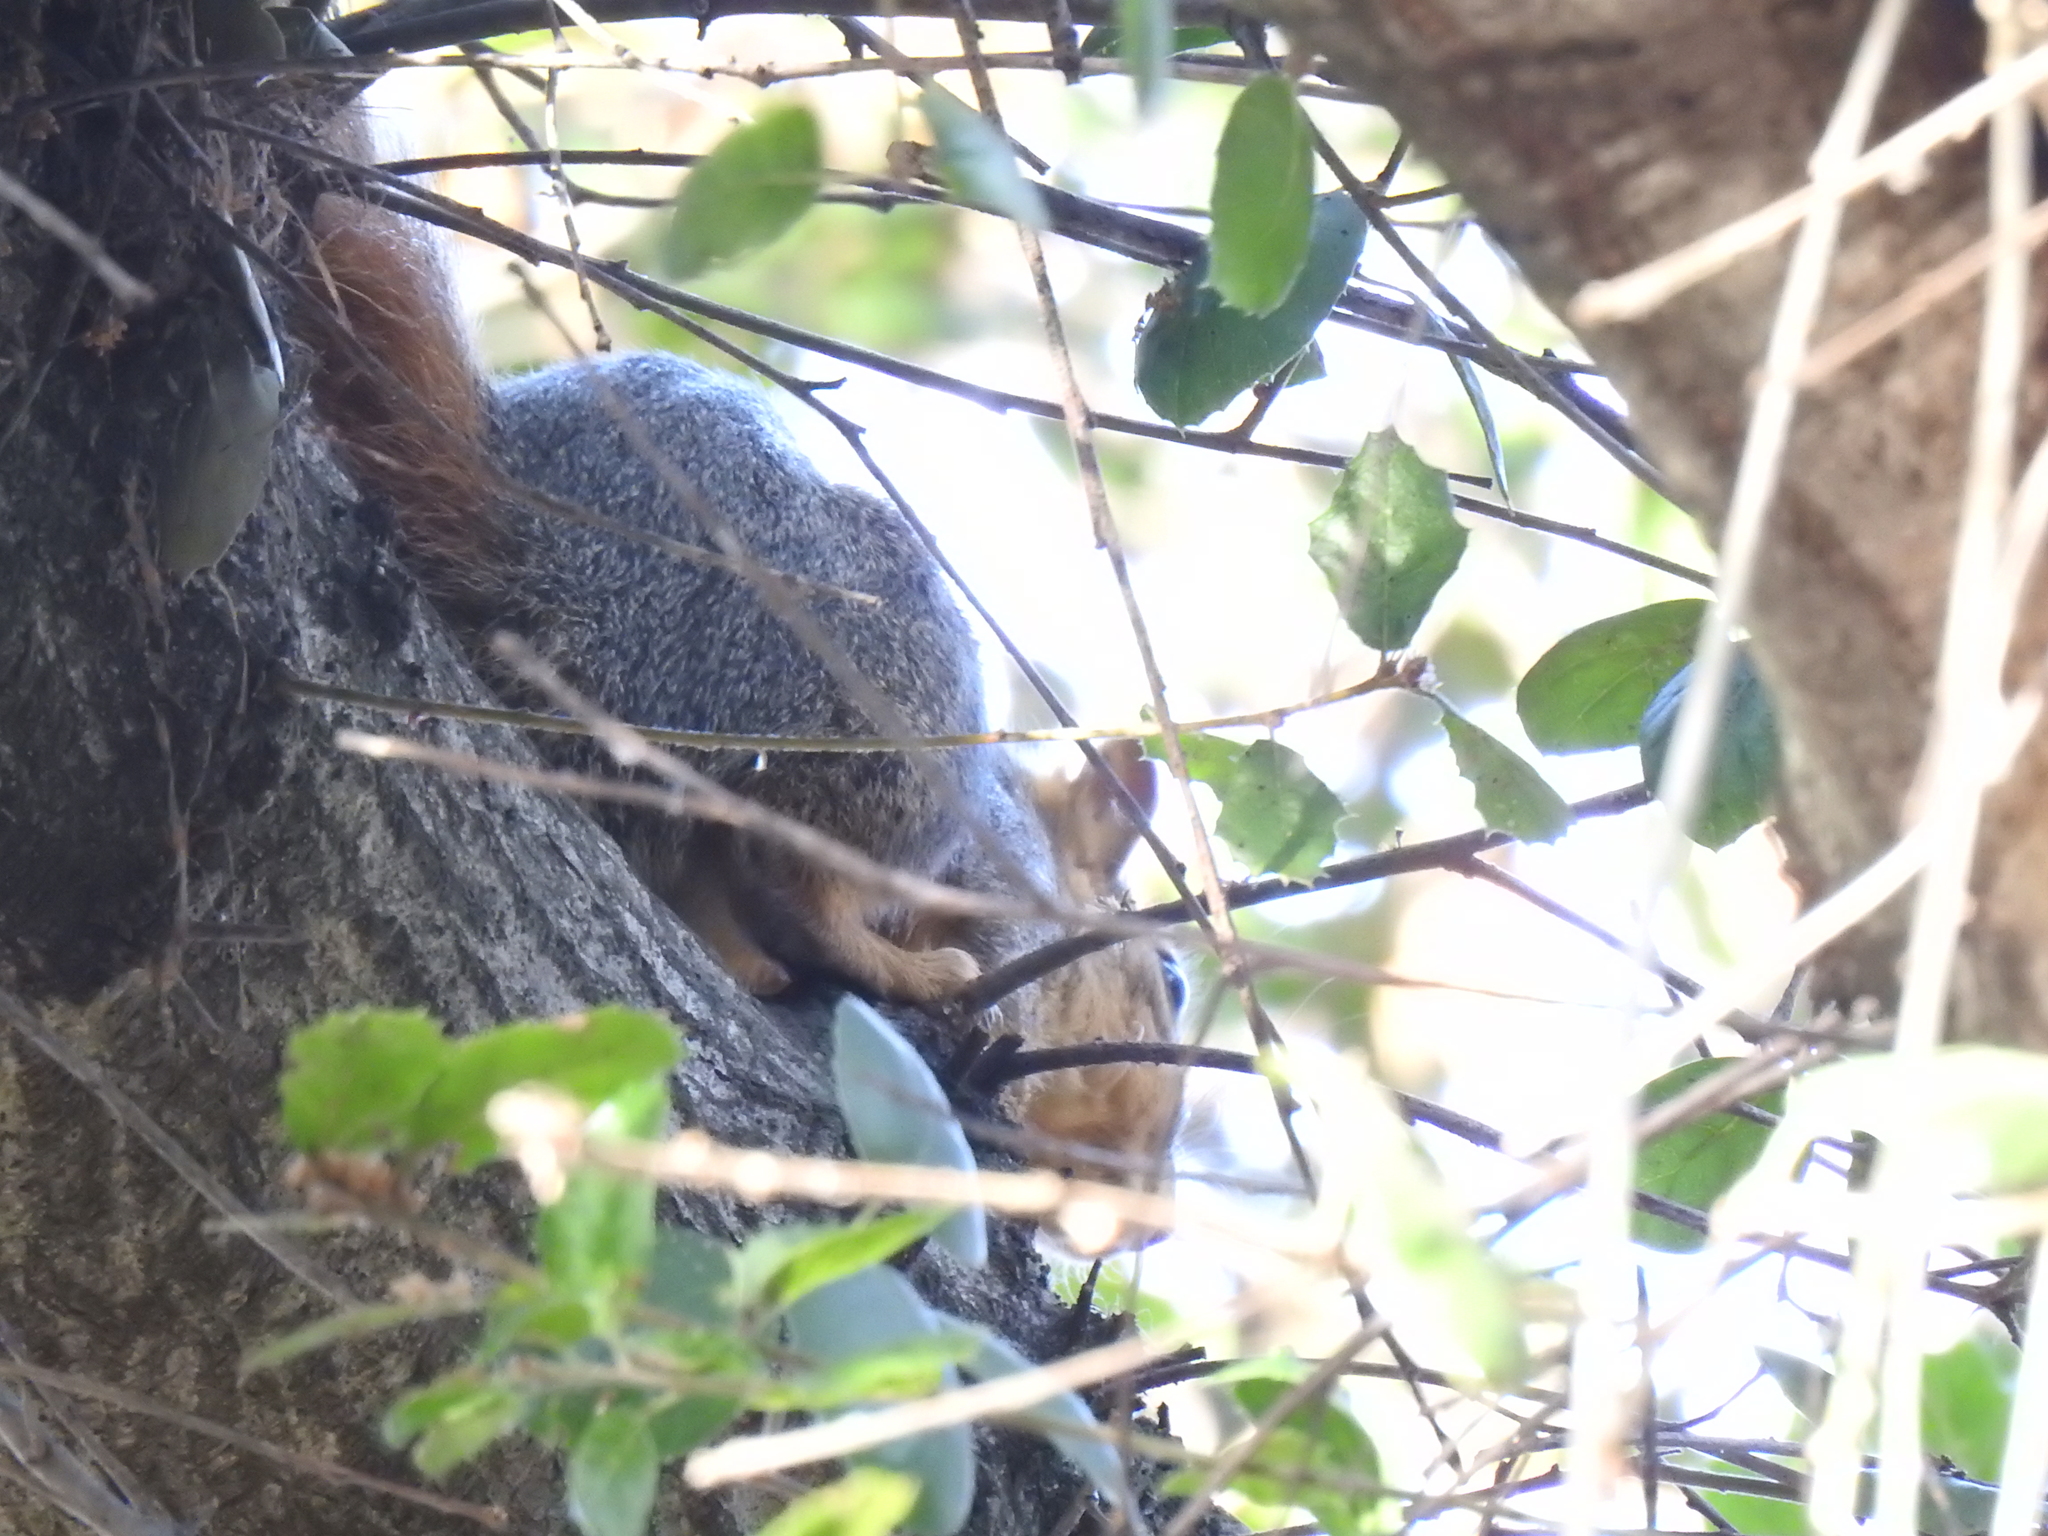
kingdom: Animalia
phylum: Chordata
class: Mammalia
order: Rodentia
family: Sciuridae
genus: Sciurus
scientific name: Sciurus niger
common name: Fox squirrel
